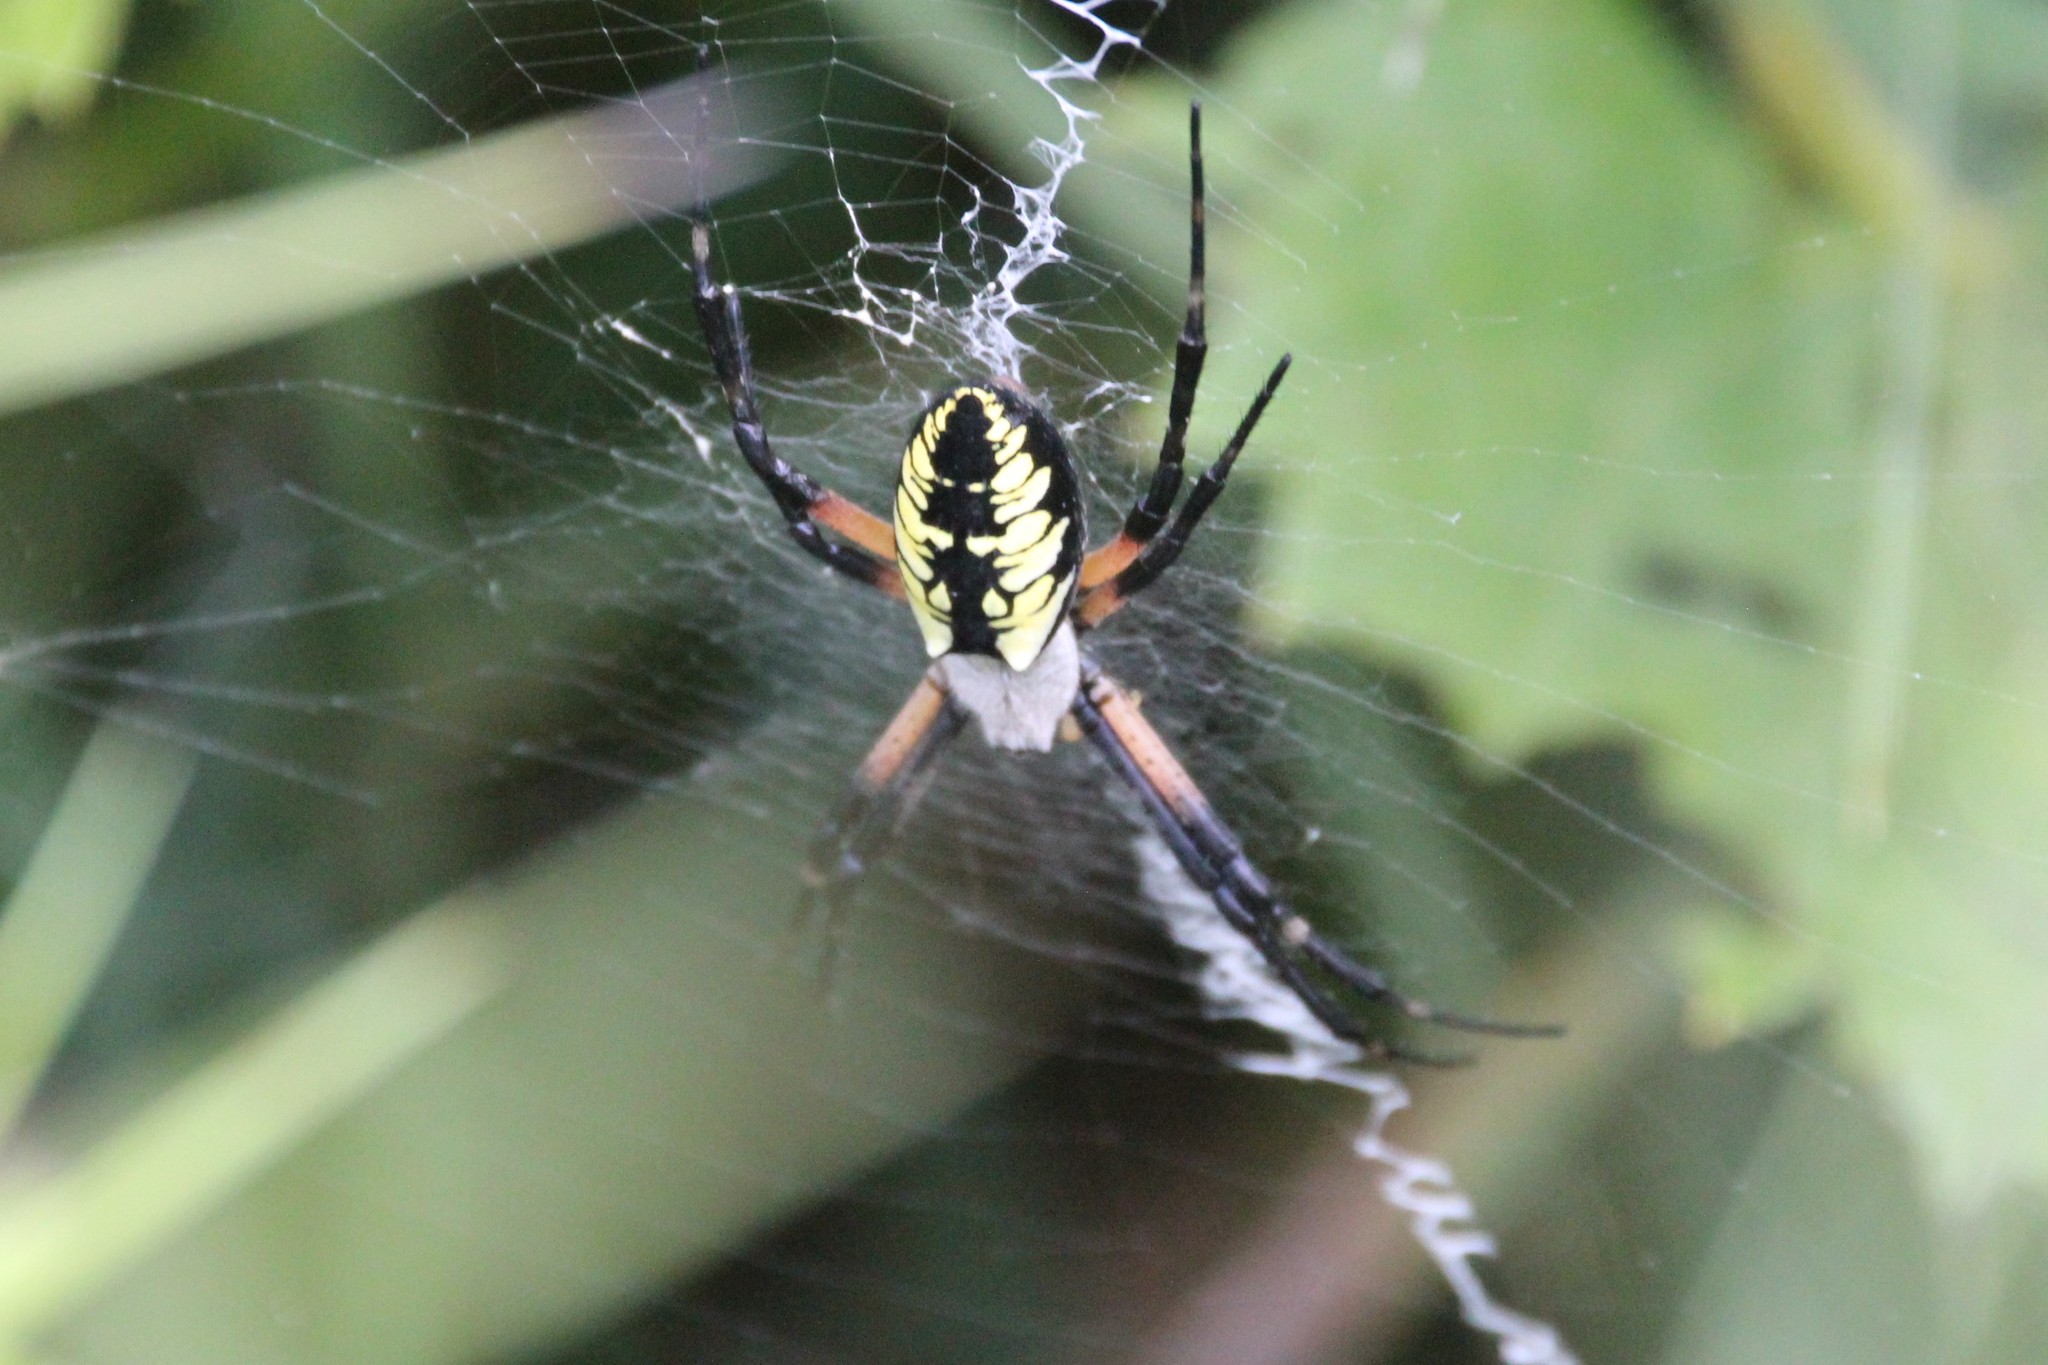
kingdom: Animalia
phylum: Arthropoda
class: Arachnida
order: Araneae
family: Araneidae
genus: Argiope
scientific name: Argiope aurantia
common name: Orb weavers
